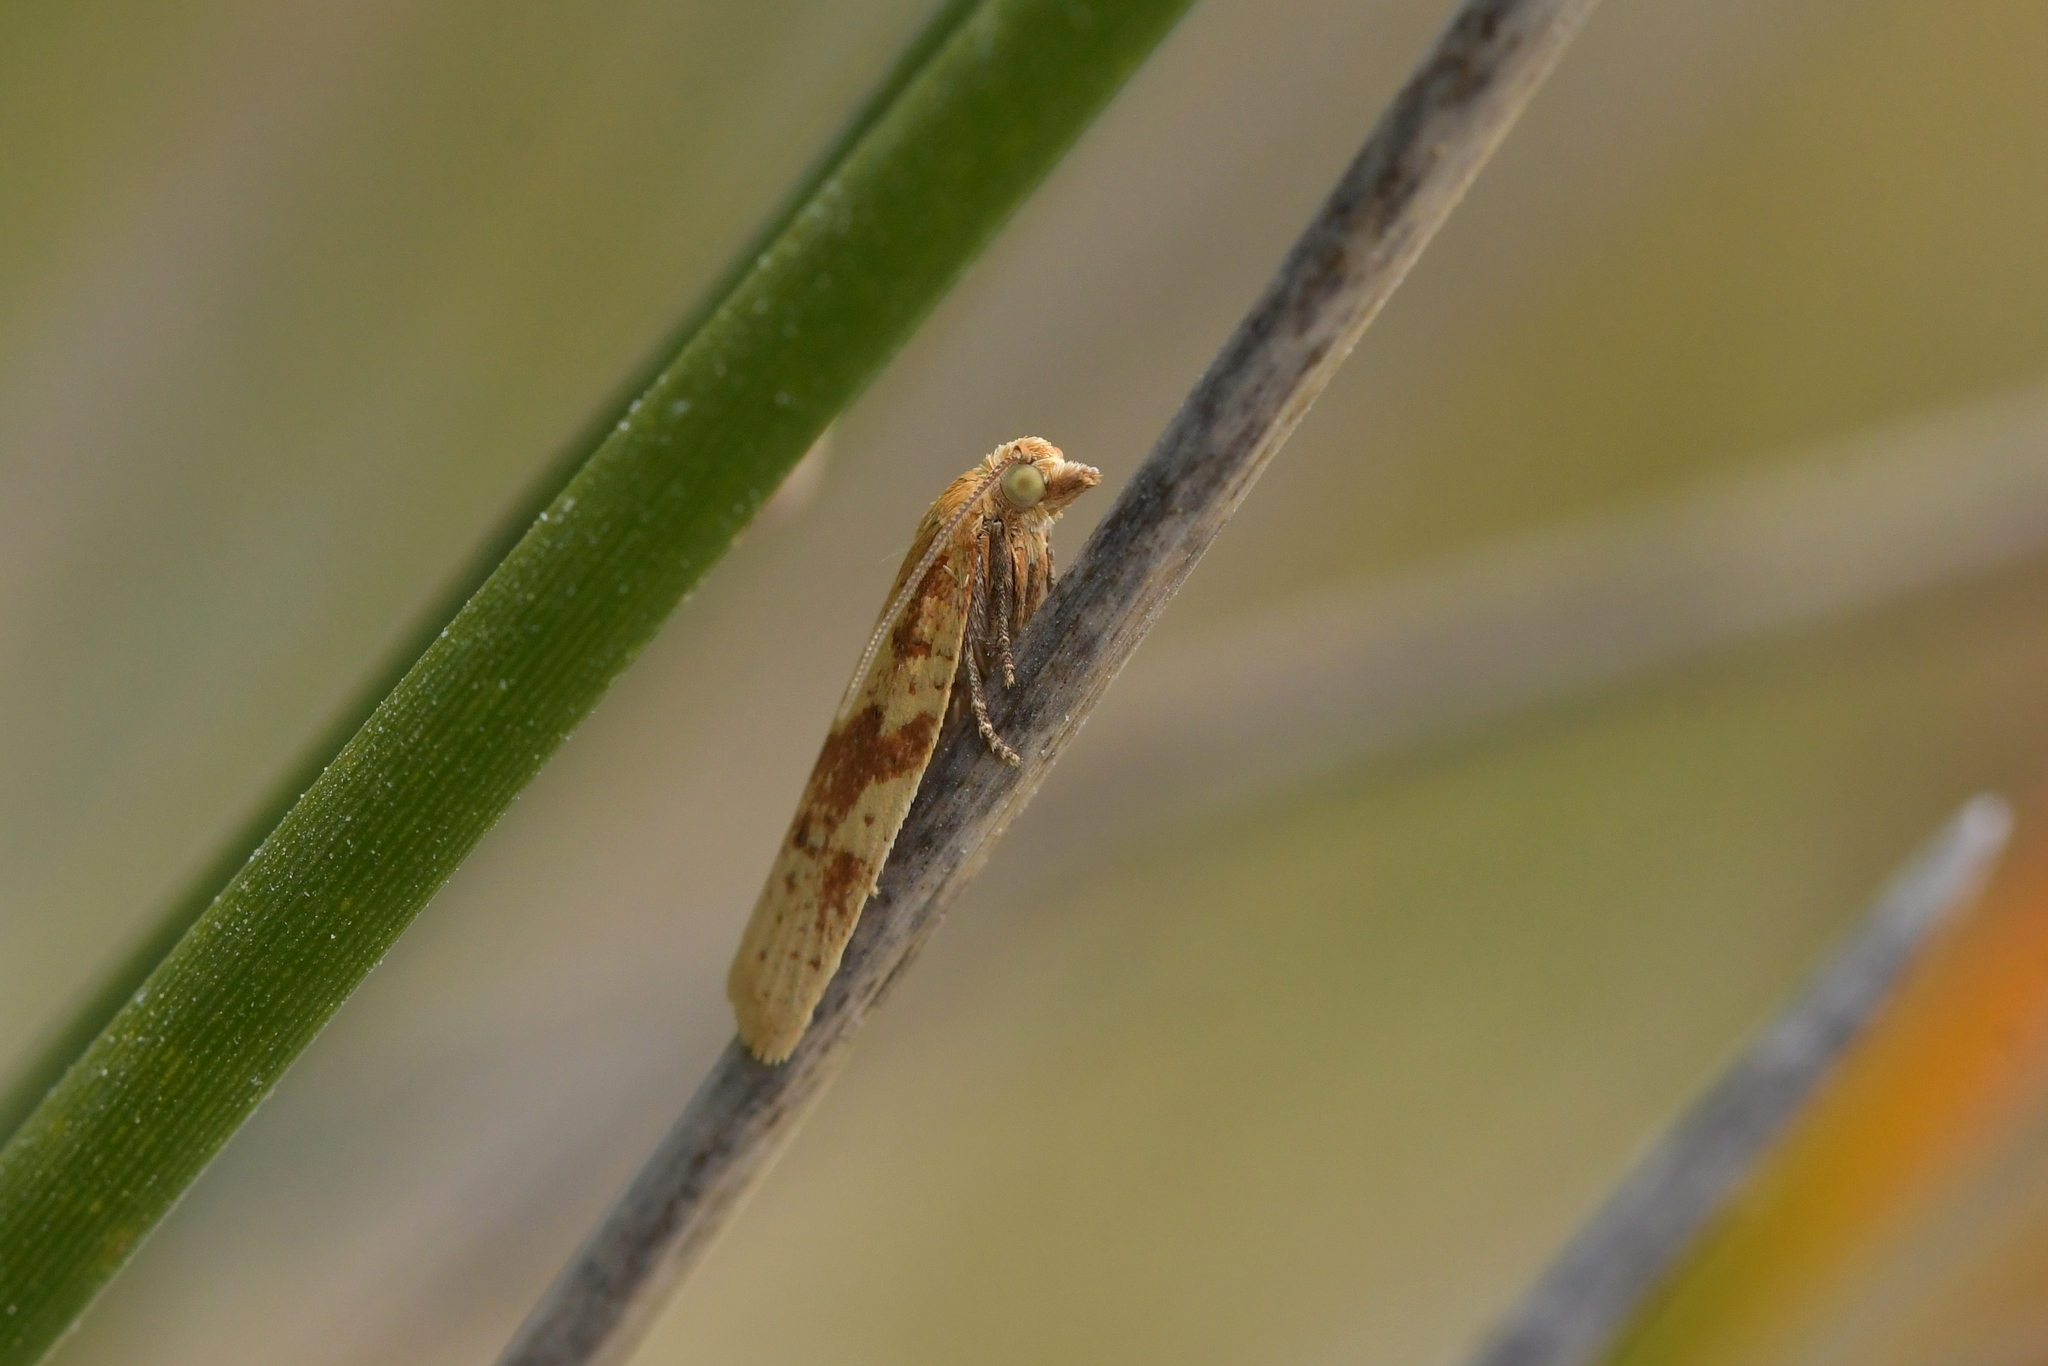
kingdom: Animalia
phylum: Arthropoda
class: Insecta
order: Lepidoptera
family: Tortricidae
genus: Clepsis
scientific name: Clepsis
